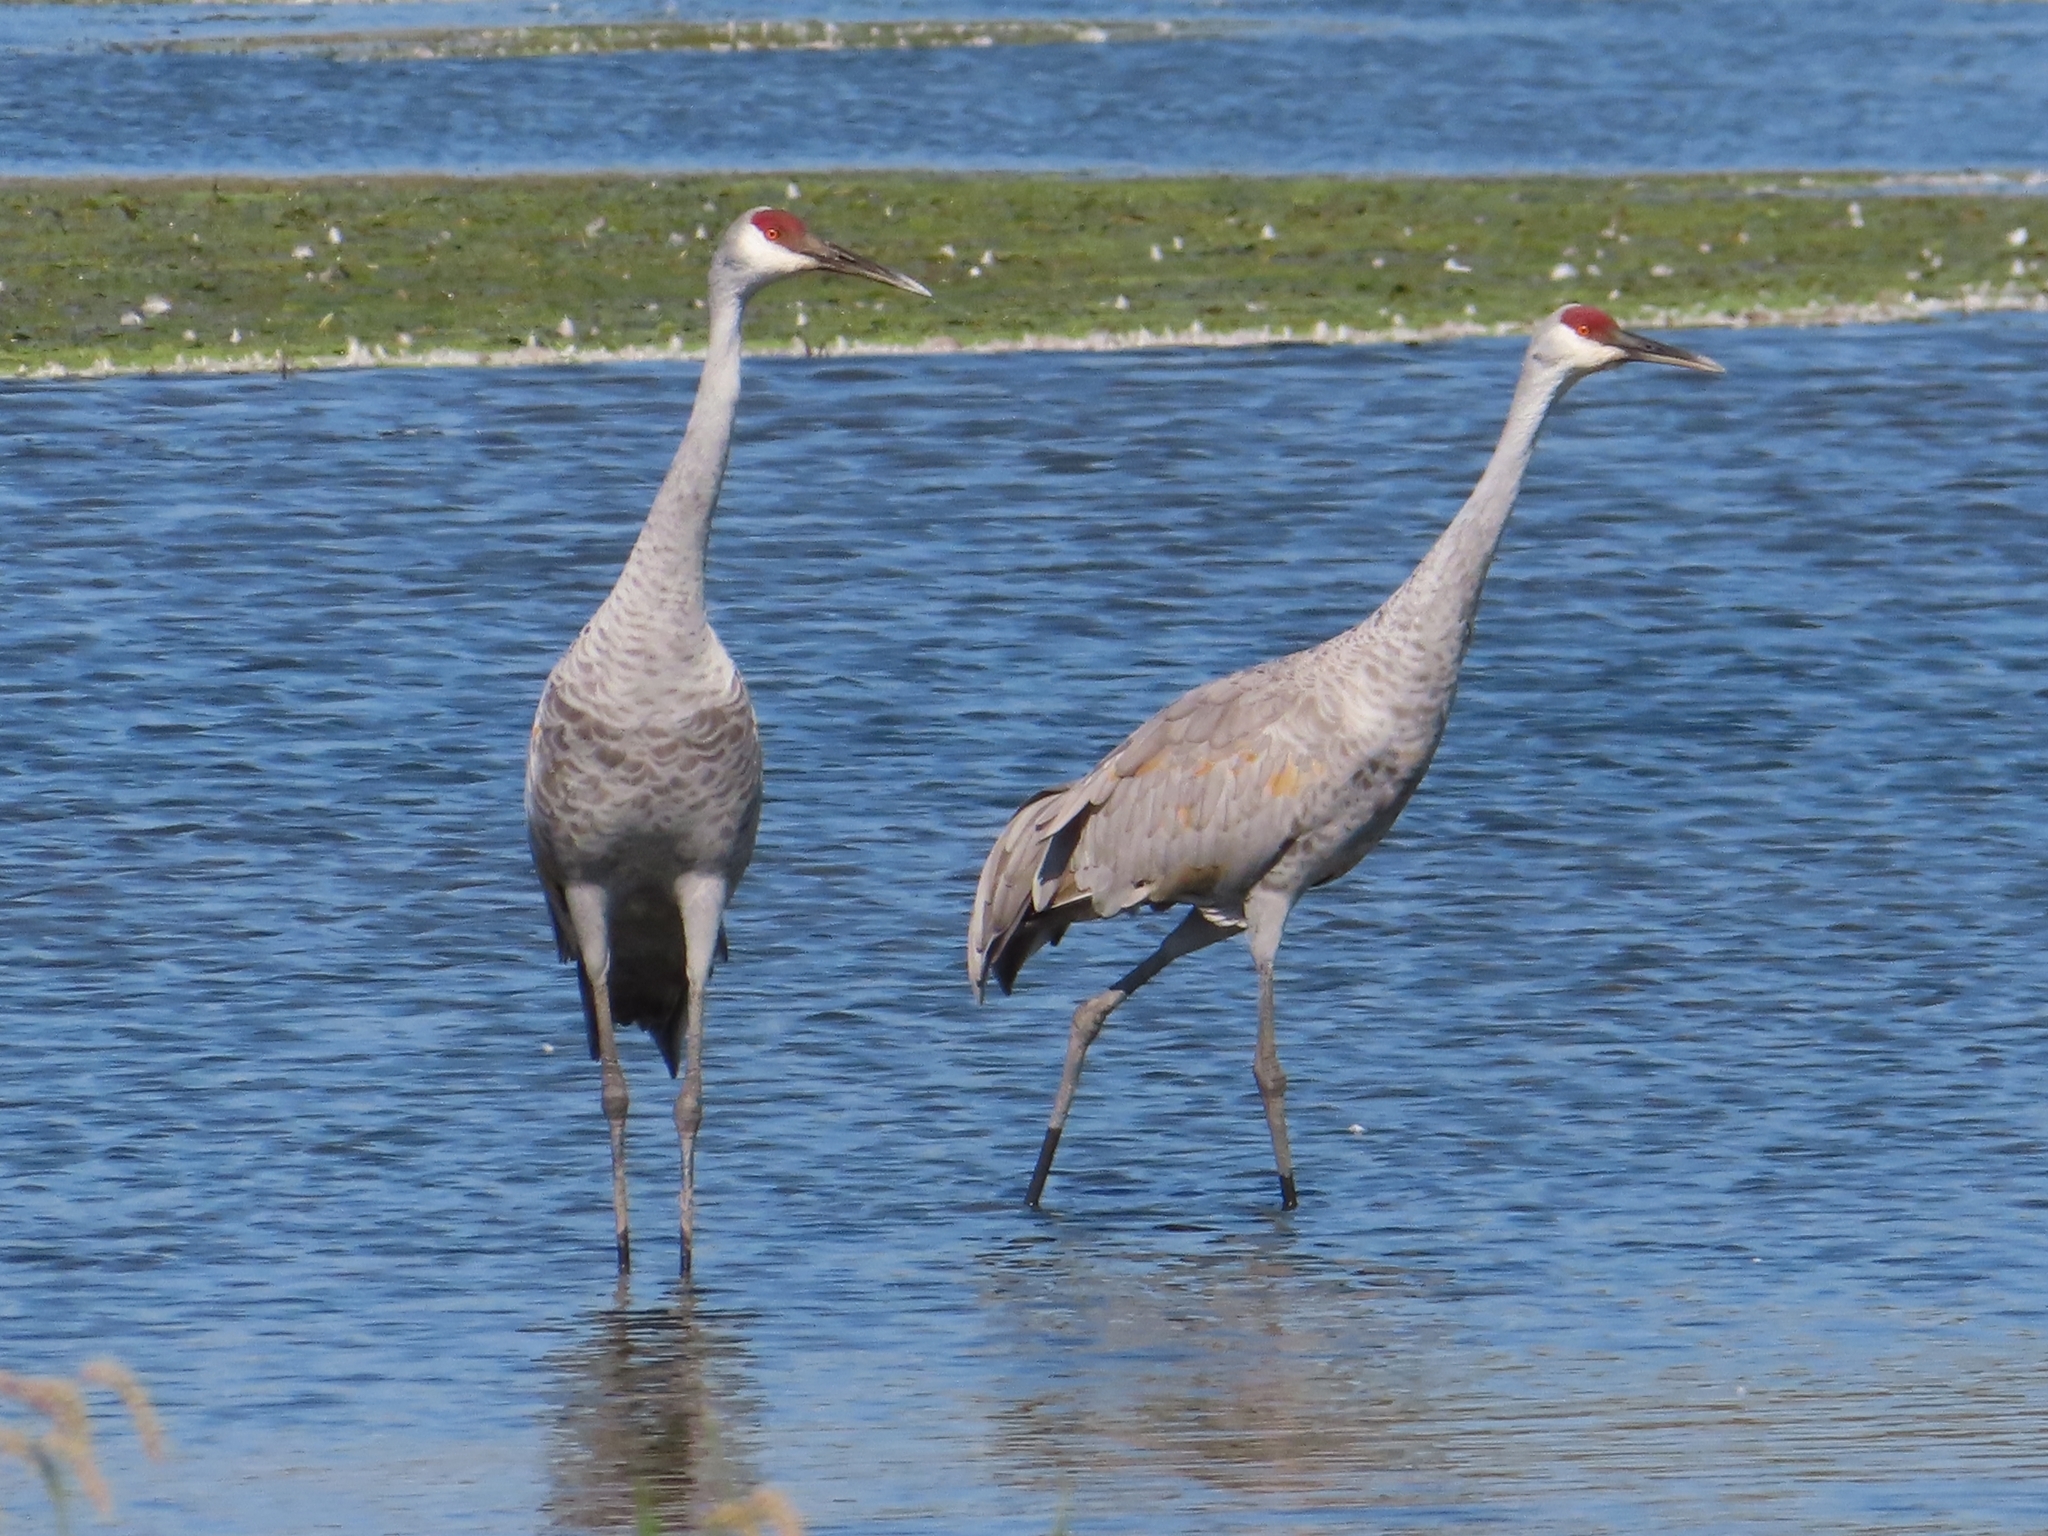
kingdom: Animalia
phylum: Chordata
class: Aves
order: Gruiformes
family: Gruidae
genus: Grus
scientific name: Grus canadensis
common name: Sandhill crane
